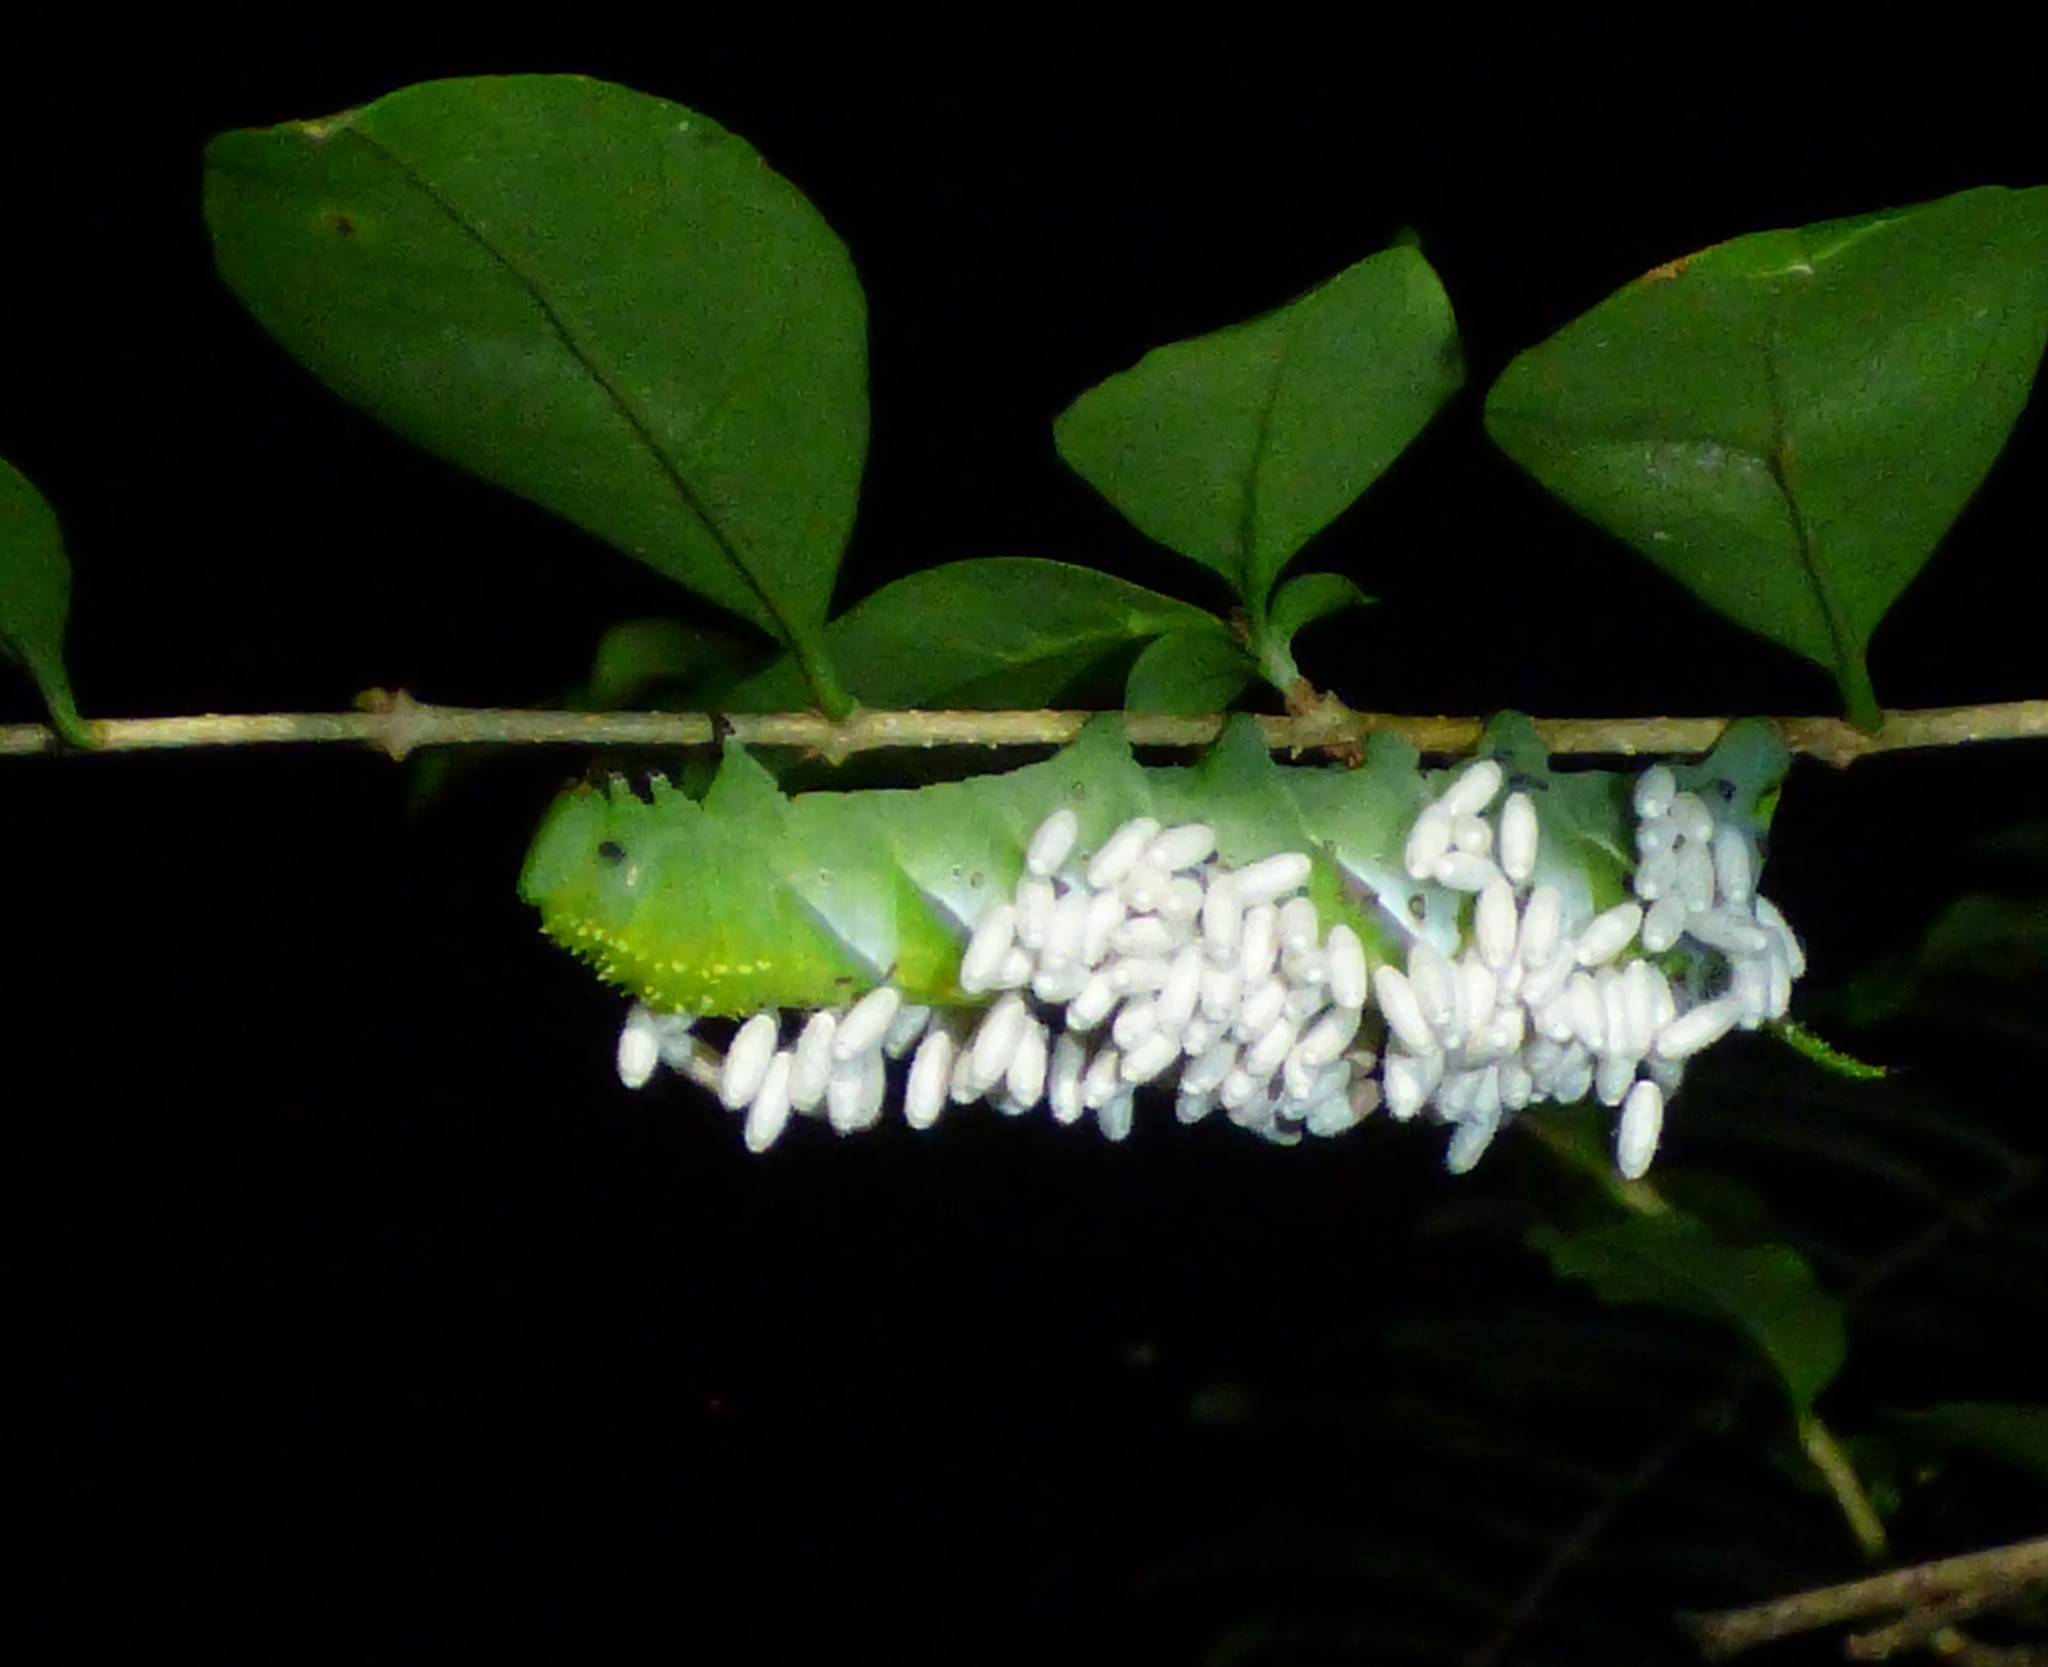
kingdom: Animalia
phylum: Arthropoda
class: Insecta
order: Lepidoptera
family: Sphingidae
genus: Manduca
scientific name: Manduca rustica
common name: Rustic sphinx
